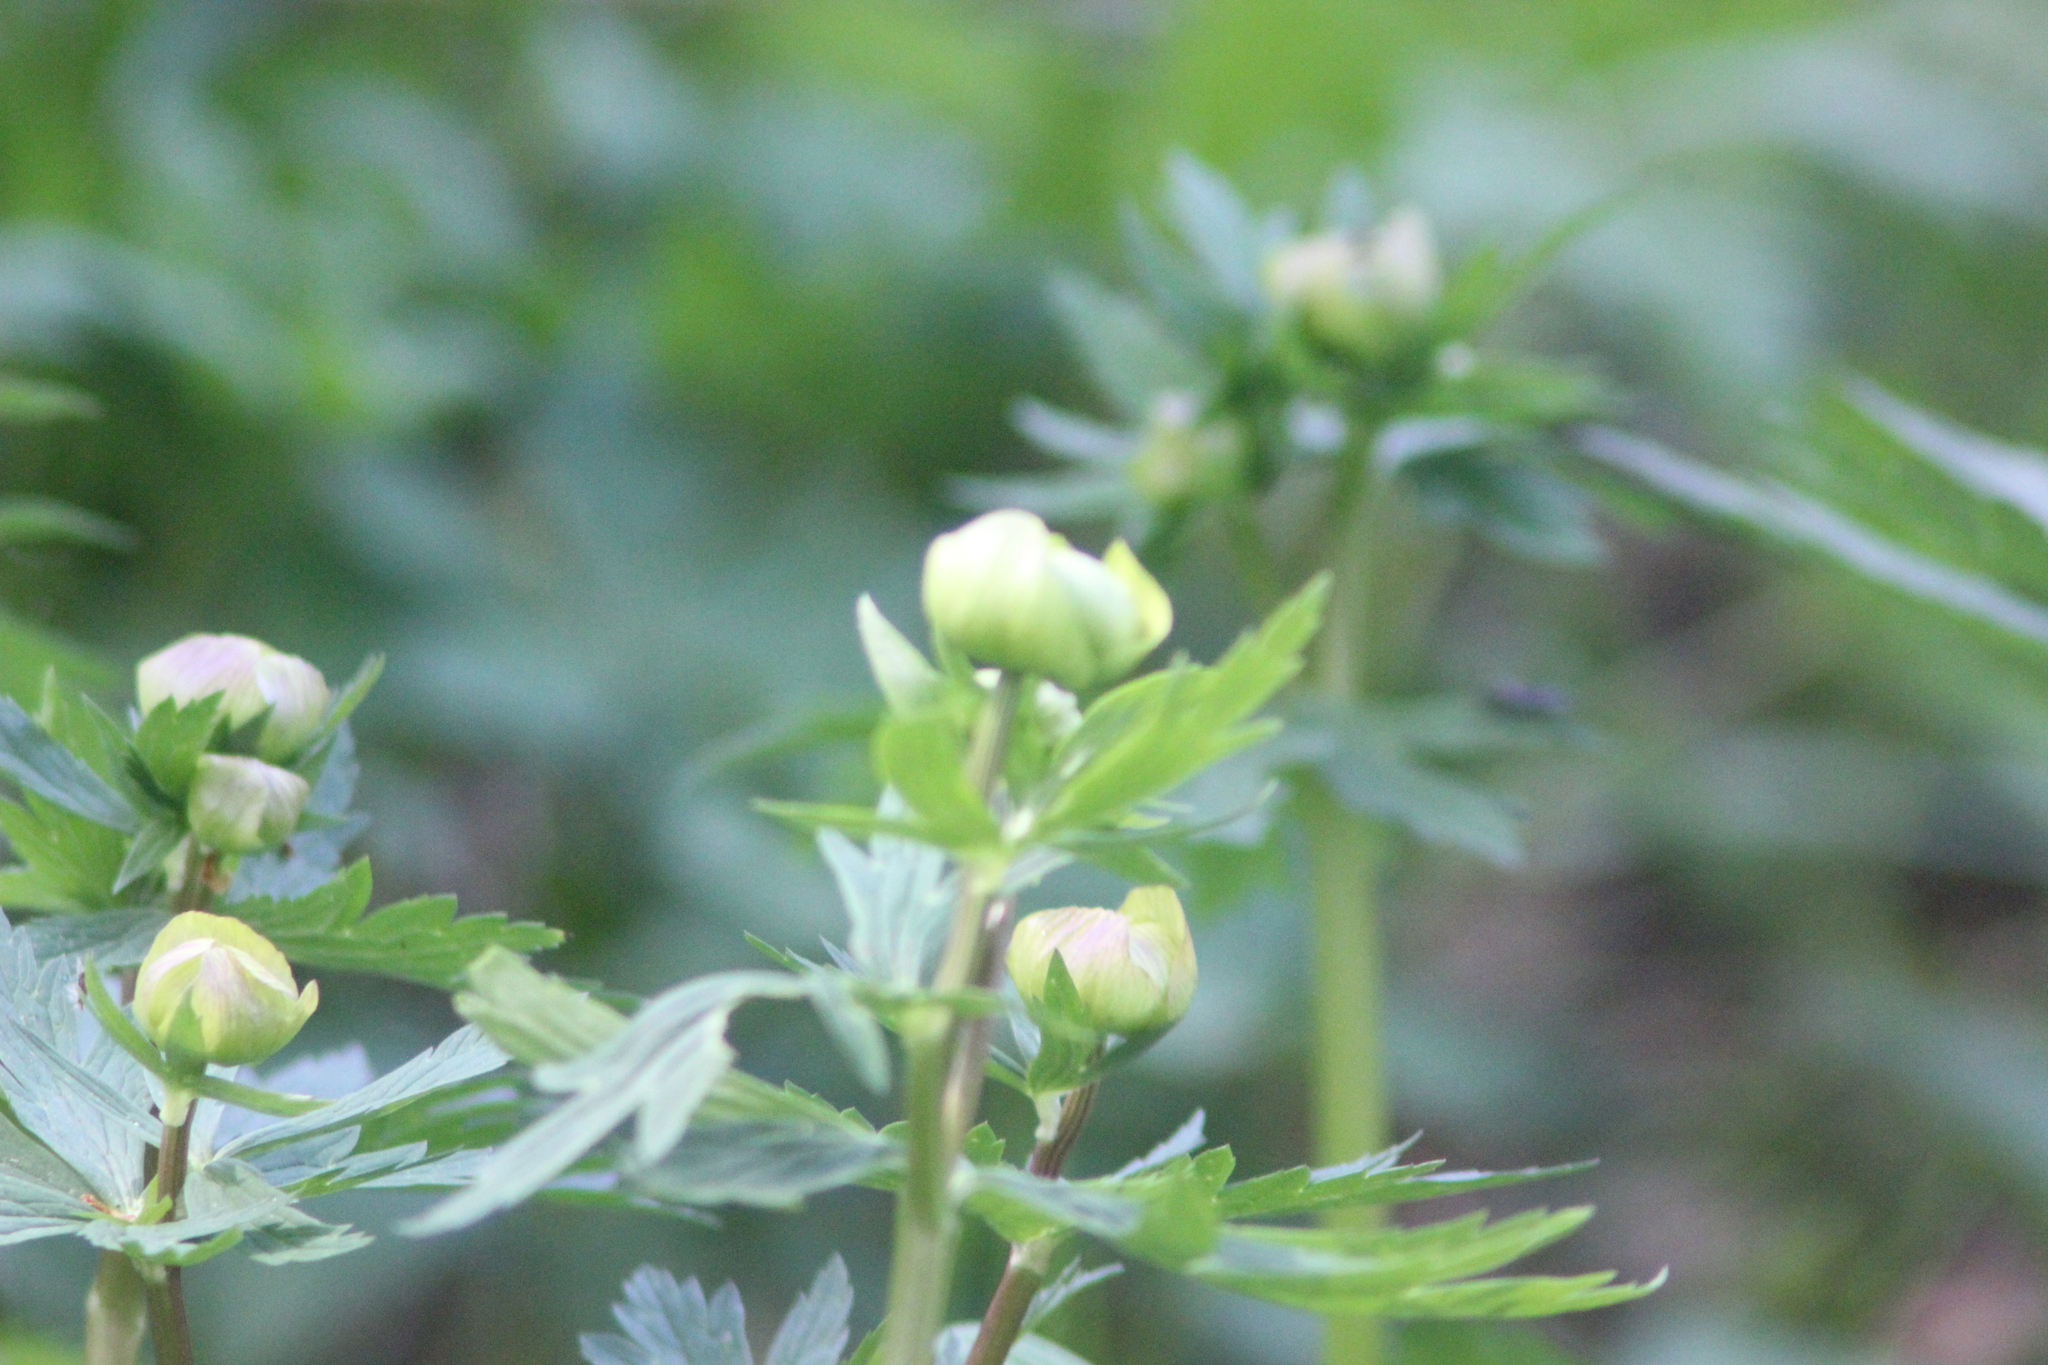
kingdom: Plantae
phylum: Tracheophyta
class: Magnoliopsida
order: Ranunculales
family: Ranunculaceae
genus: Trollius
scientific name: Trollius europaeus
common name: European globeflower
